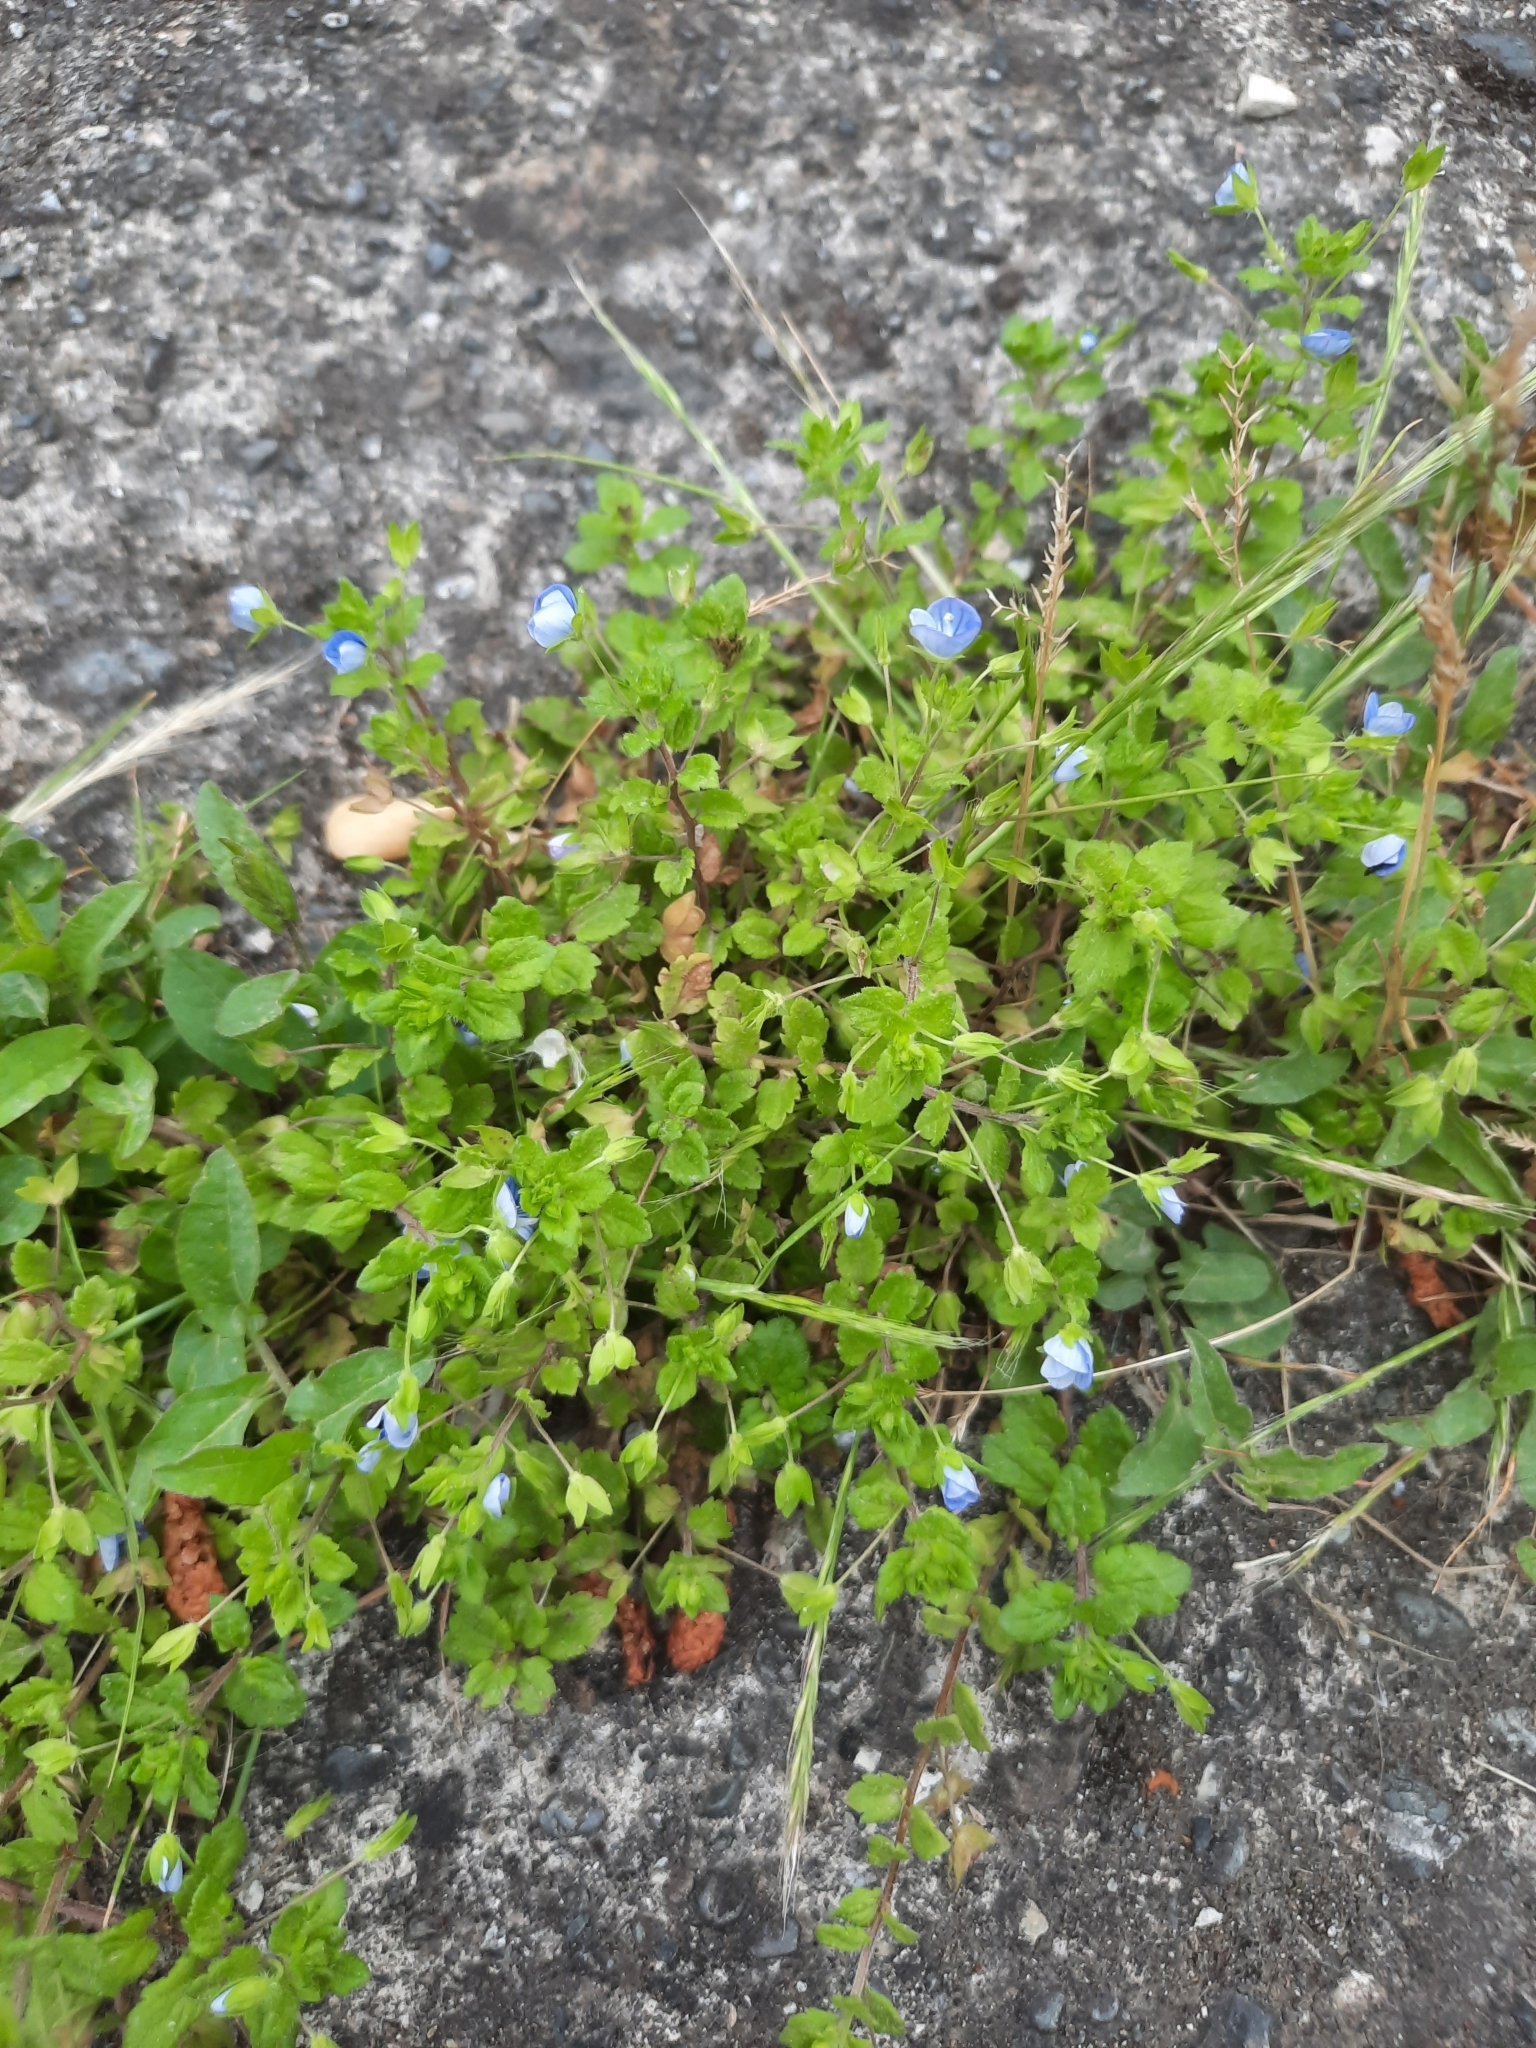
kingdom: Plantae
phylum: Tracheophyta
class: Magnoliopsida
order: Lamiales
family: Plantaginaceae
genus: Veronica
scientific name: Veronica persica
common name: Common field-speedwell
